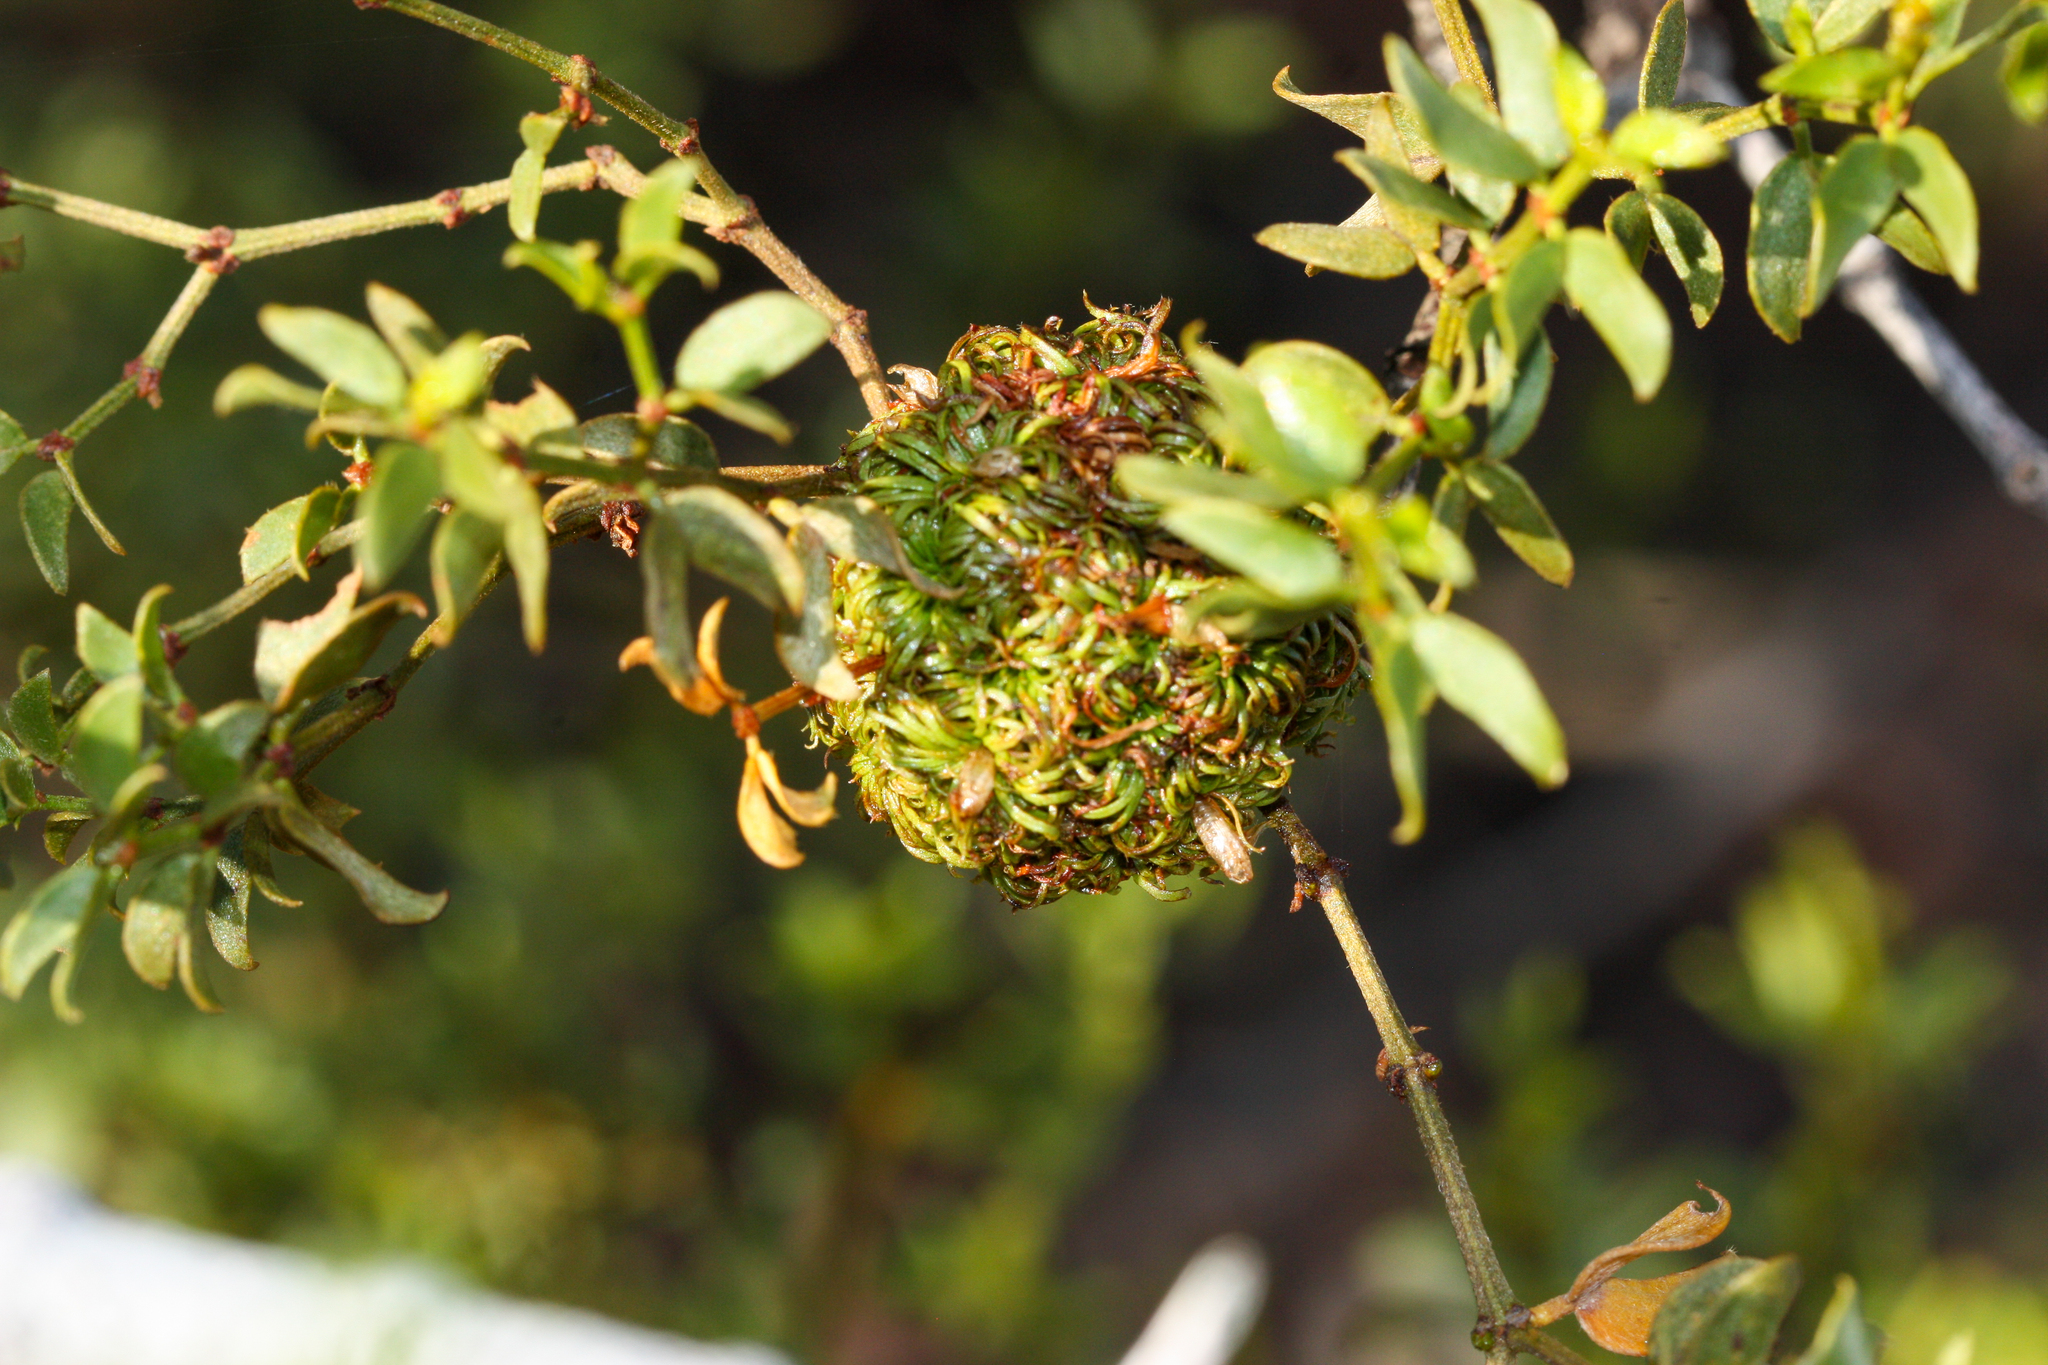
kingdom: Animalia
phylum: Arthropoda
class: Insecta
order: Diptera
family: Cecidomyiidae
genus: Asphondylia
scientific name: Asphondylia auripila
